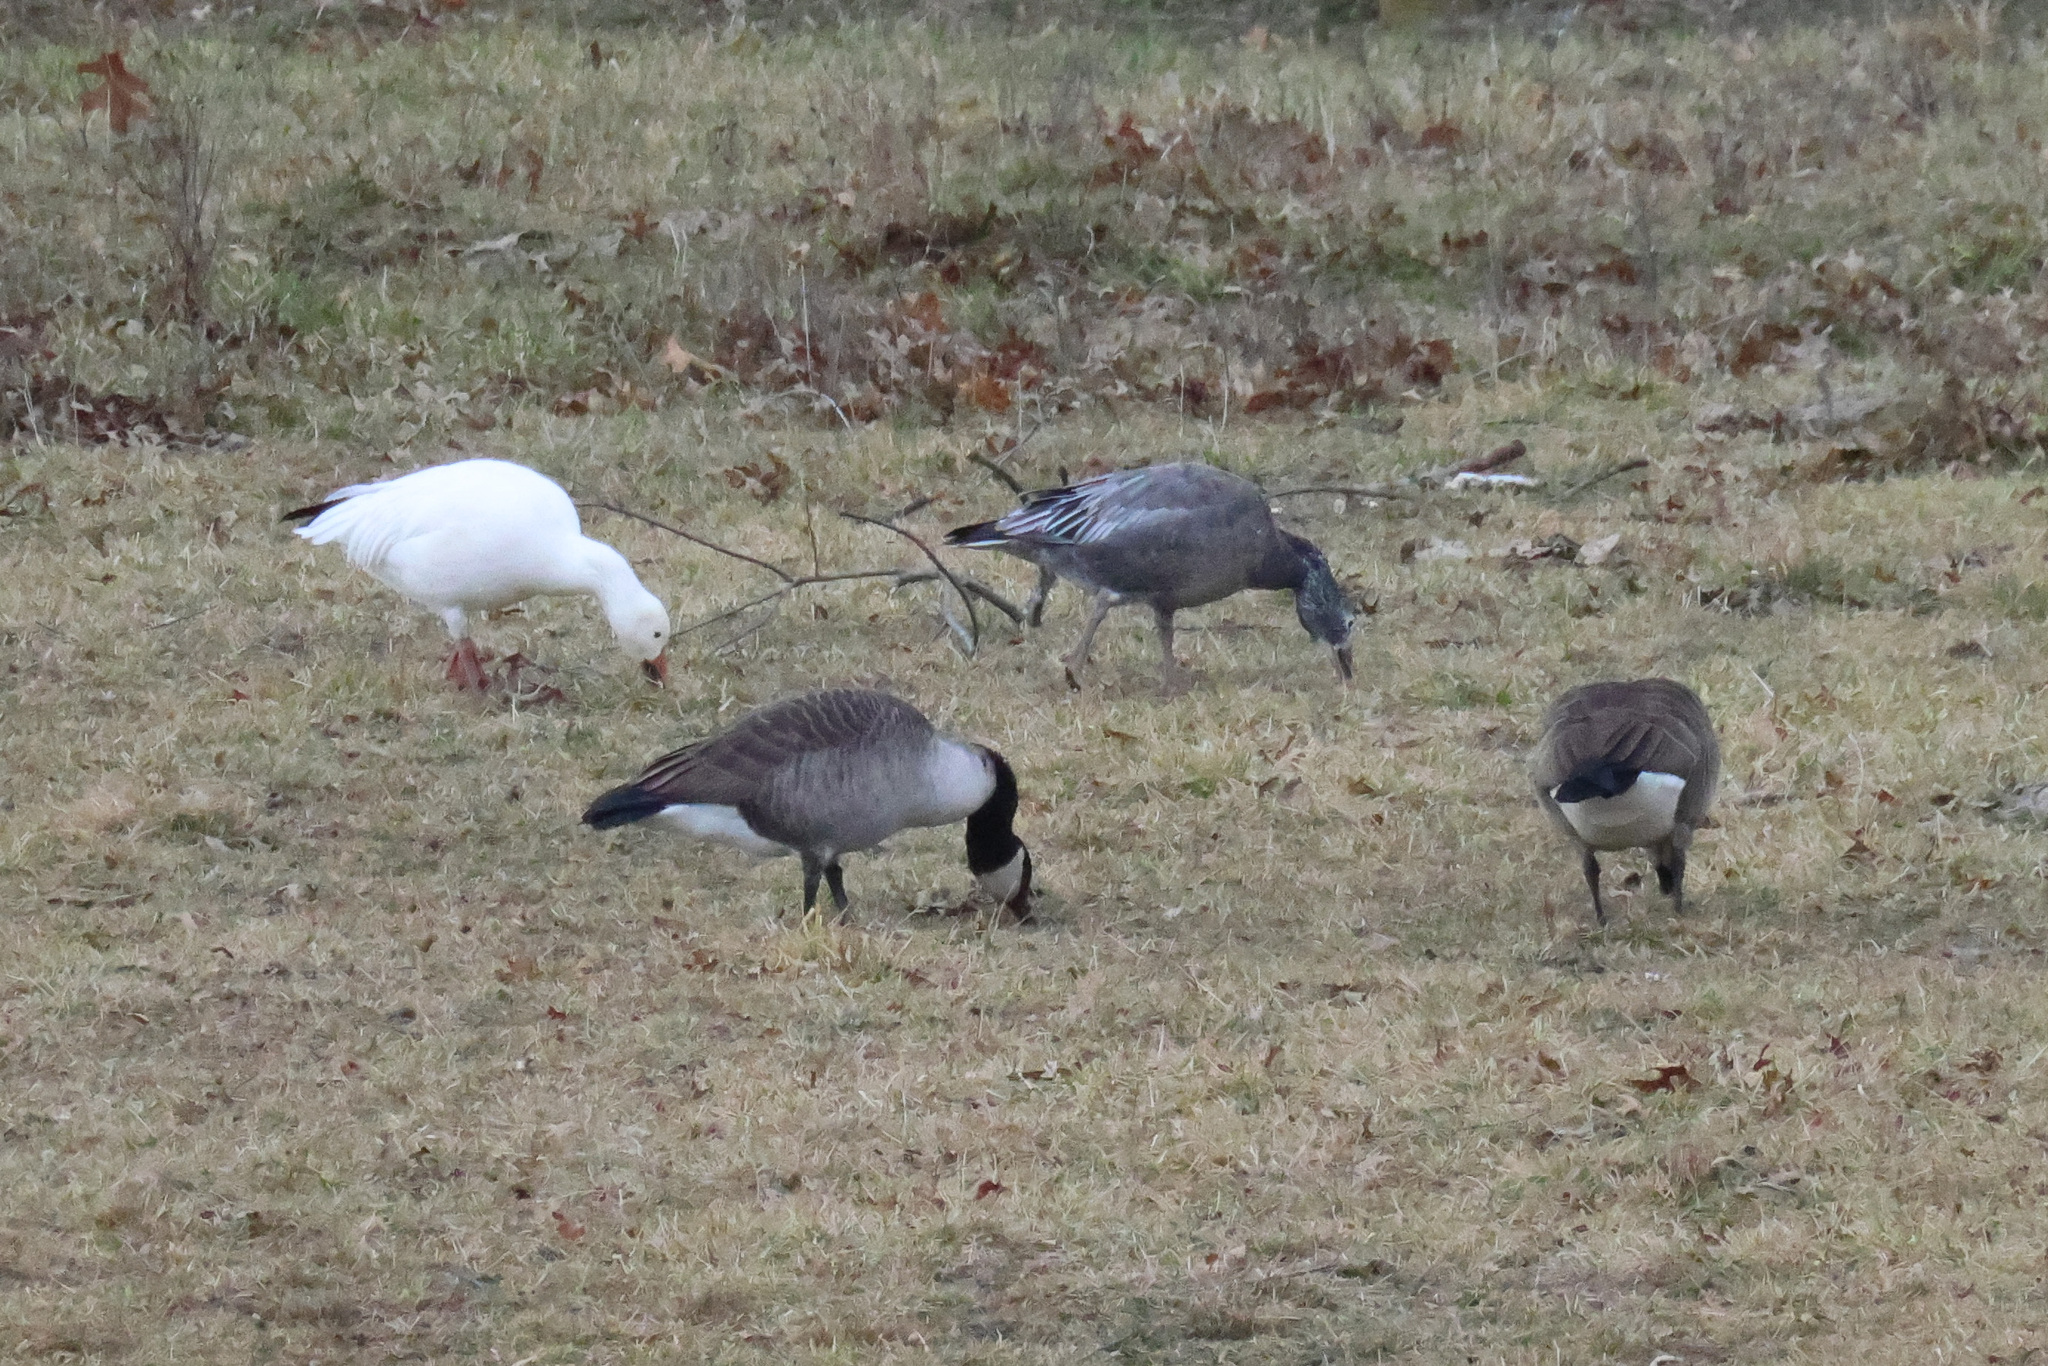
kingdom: Animalia
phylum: Chordata
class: Aves
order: Anseriformes
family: Anatidae
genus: Anser
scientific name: Anser caerulescens
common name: Snow goose
